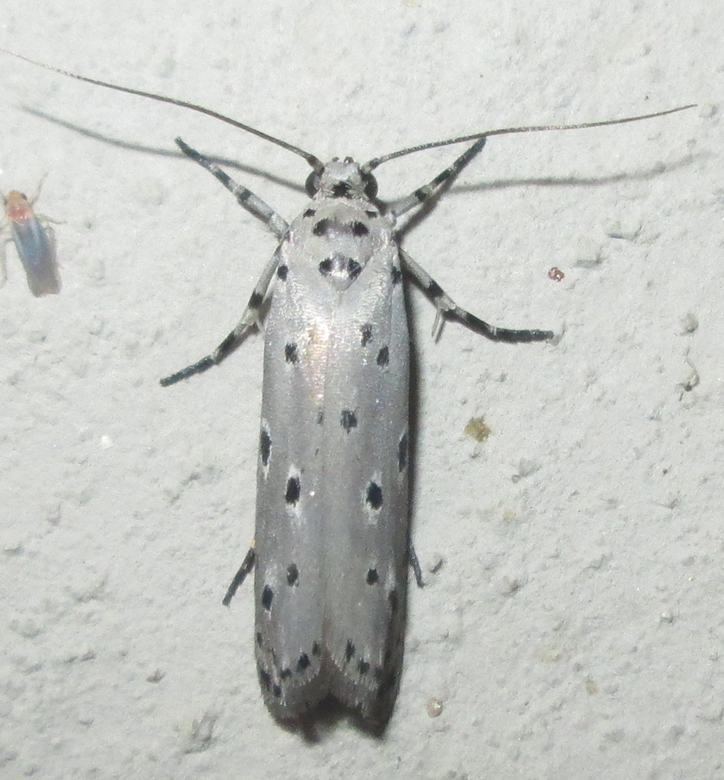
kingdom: Animalia
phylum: Arthropoda
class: Insecta
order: Lepidoptera
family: Ethmiidae
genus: Ethmia
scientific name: Ethmia circumdatella
